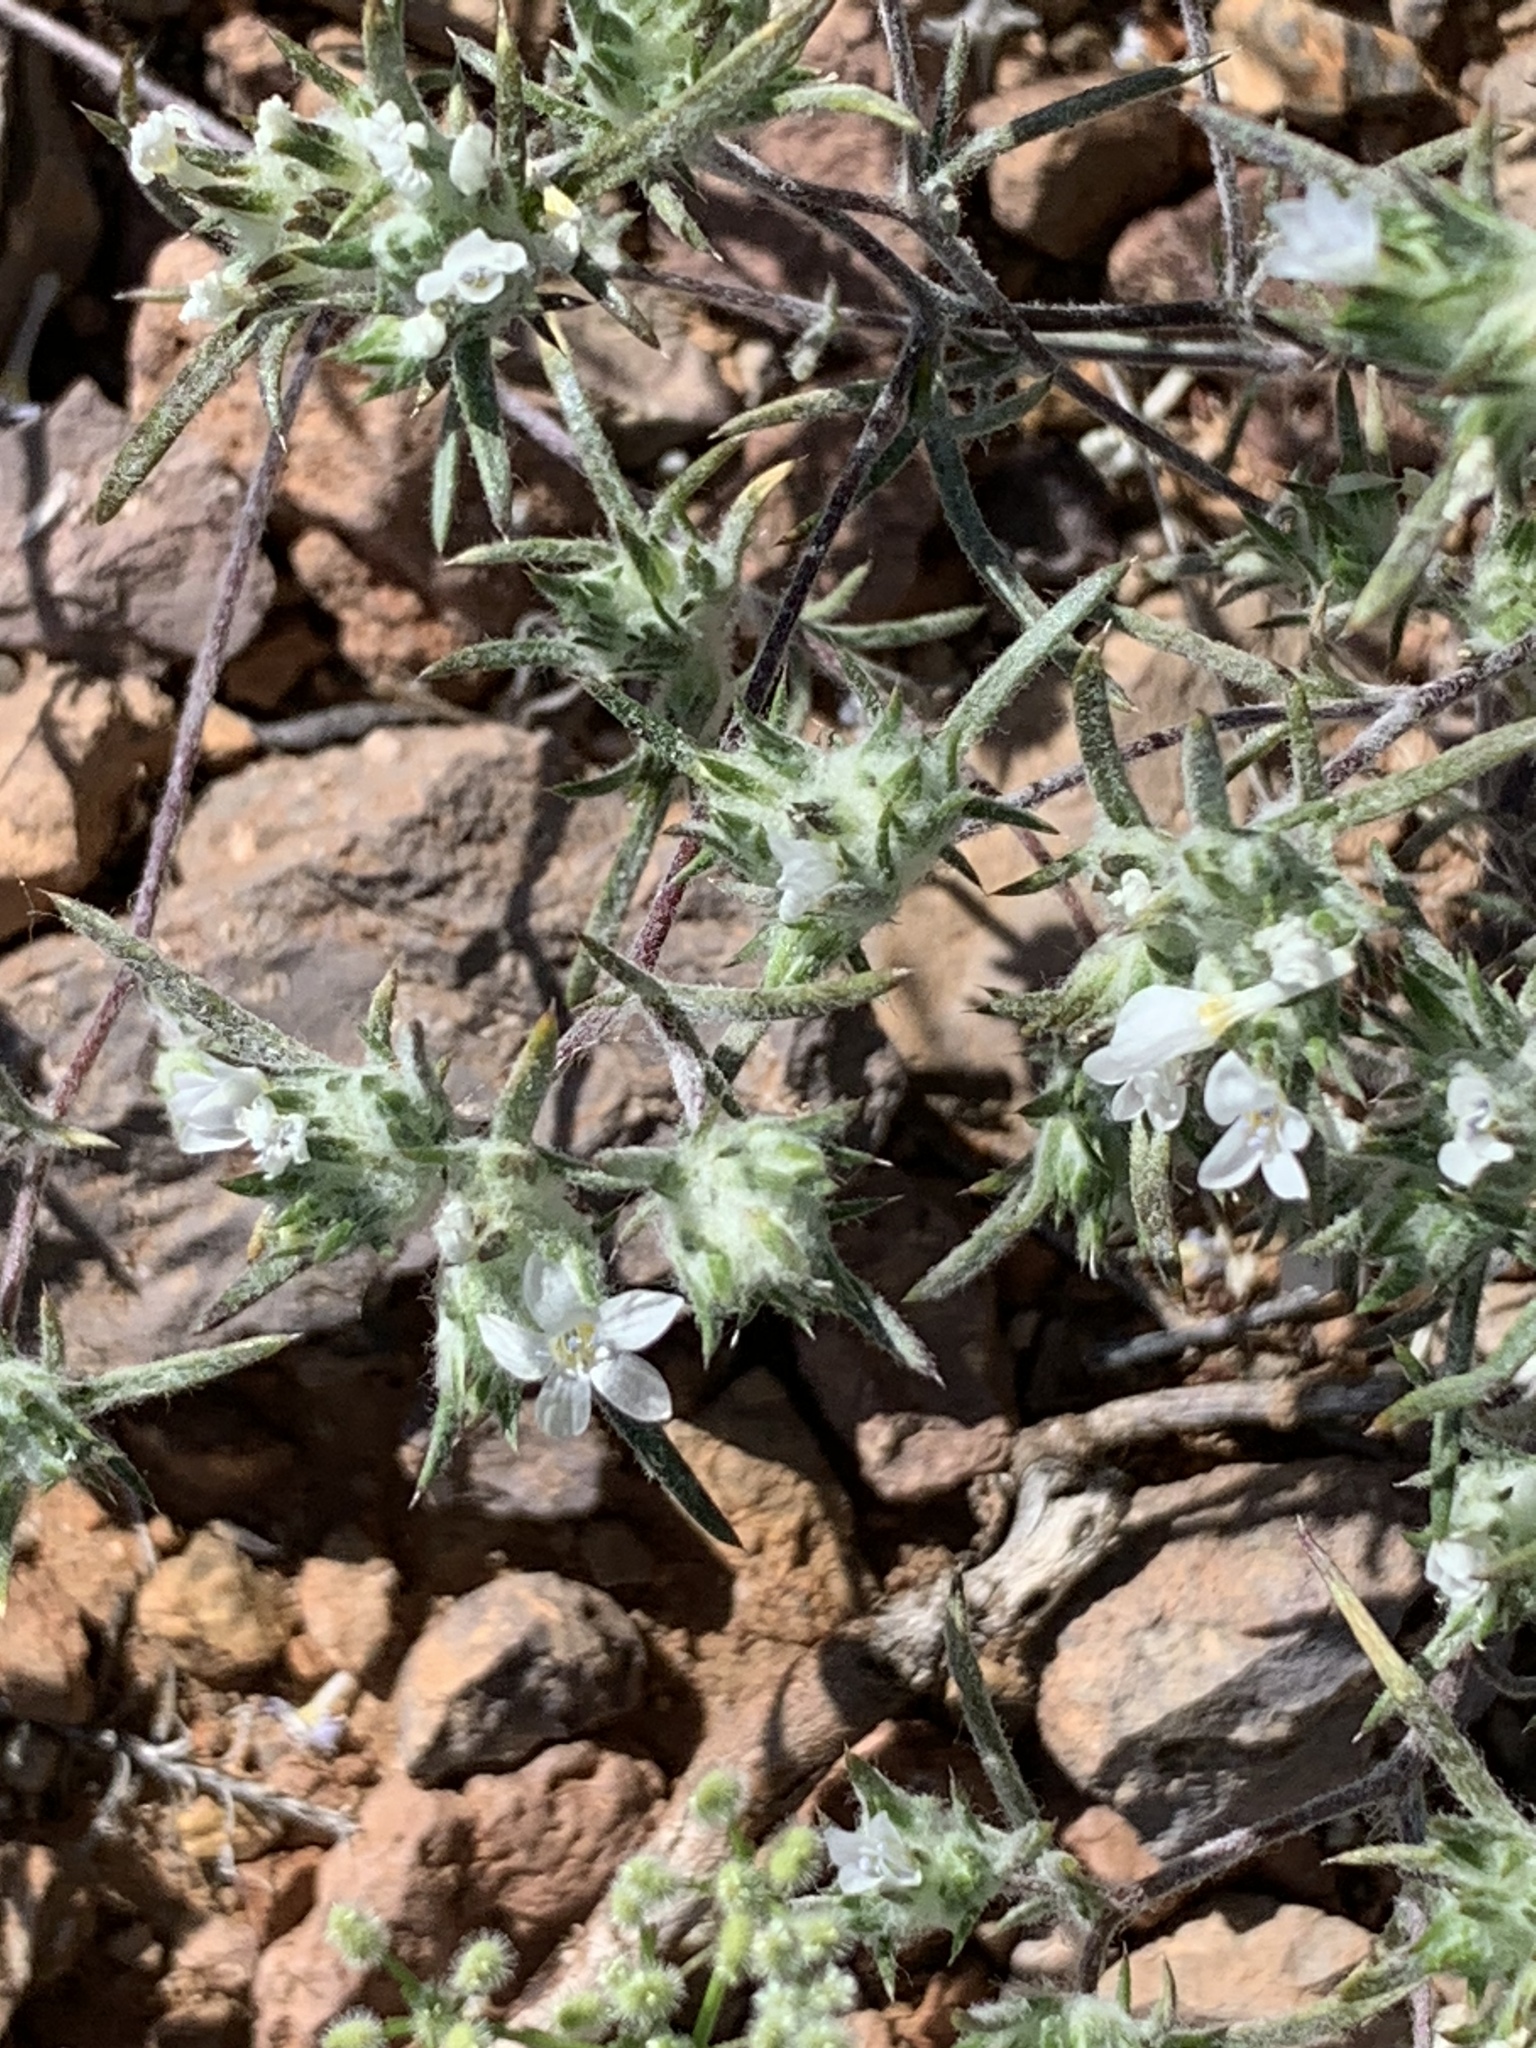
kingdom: Plantae
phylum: Tracheophyta
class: Magnoliopsida
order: Ericales
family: Polemoniaceae
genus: Eriastrum
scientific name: Eriastrum diffusum
